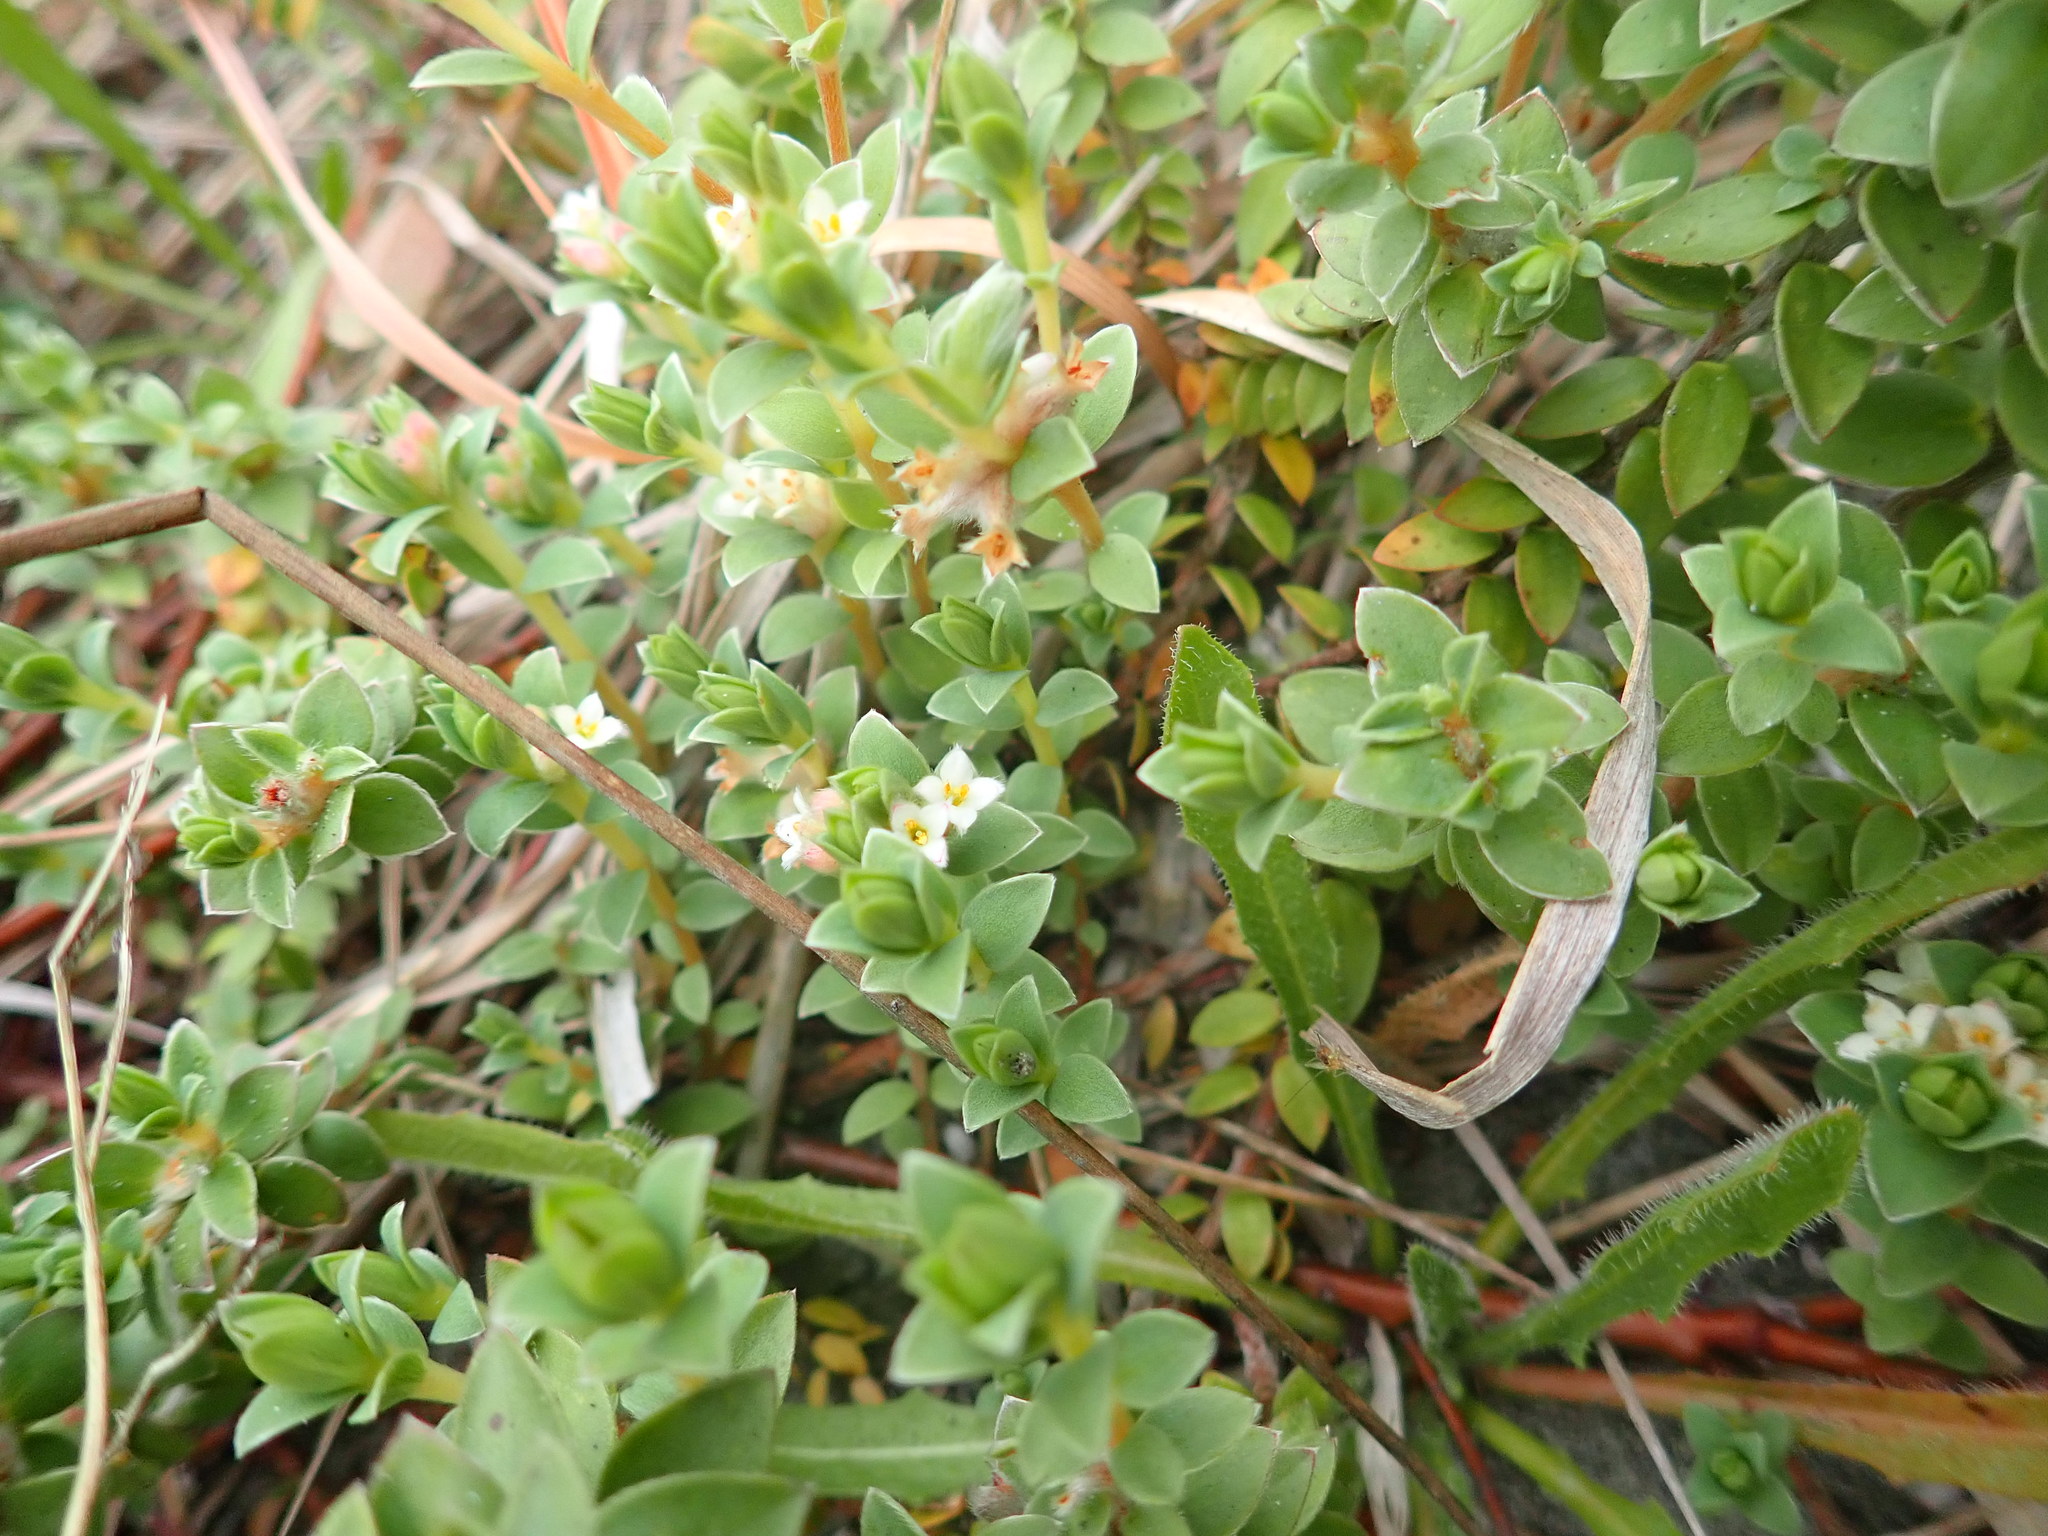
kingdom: Plantae
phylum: Tracheophyta
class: Magnoliopsida
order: Malvales
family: Thymelaeaceae
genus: Pimelea
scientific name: Pimelea villosa
